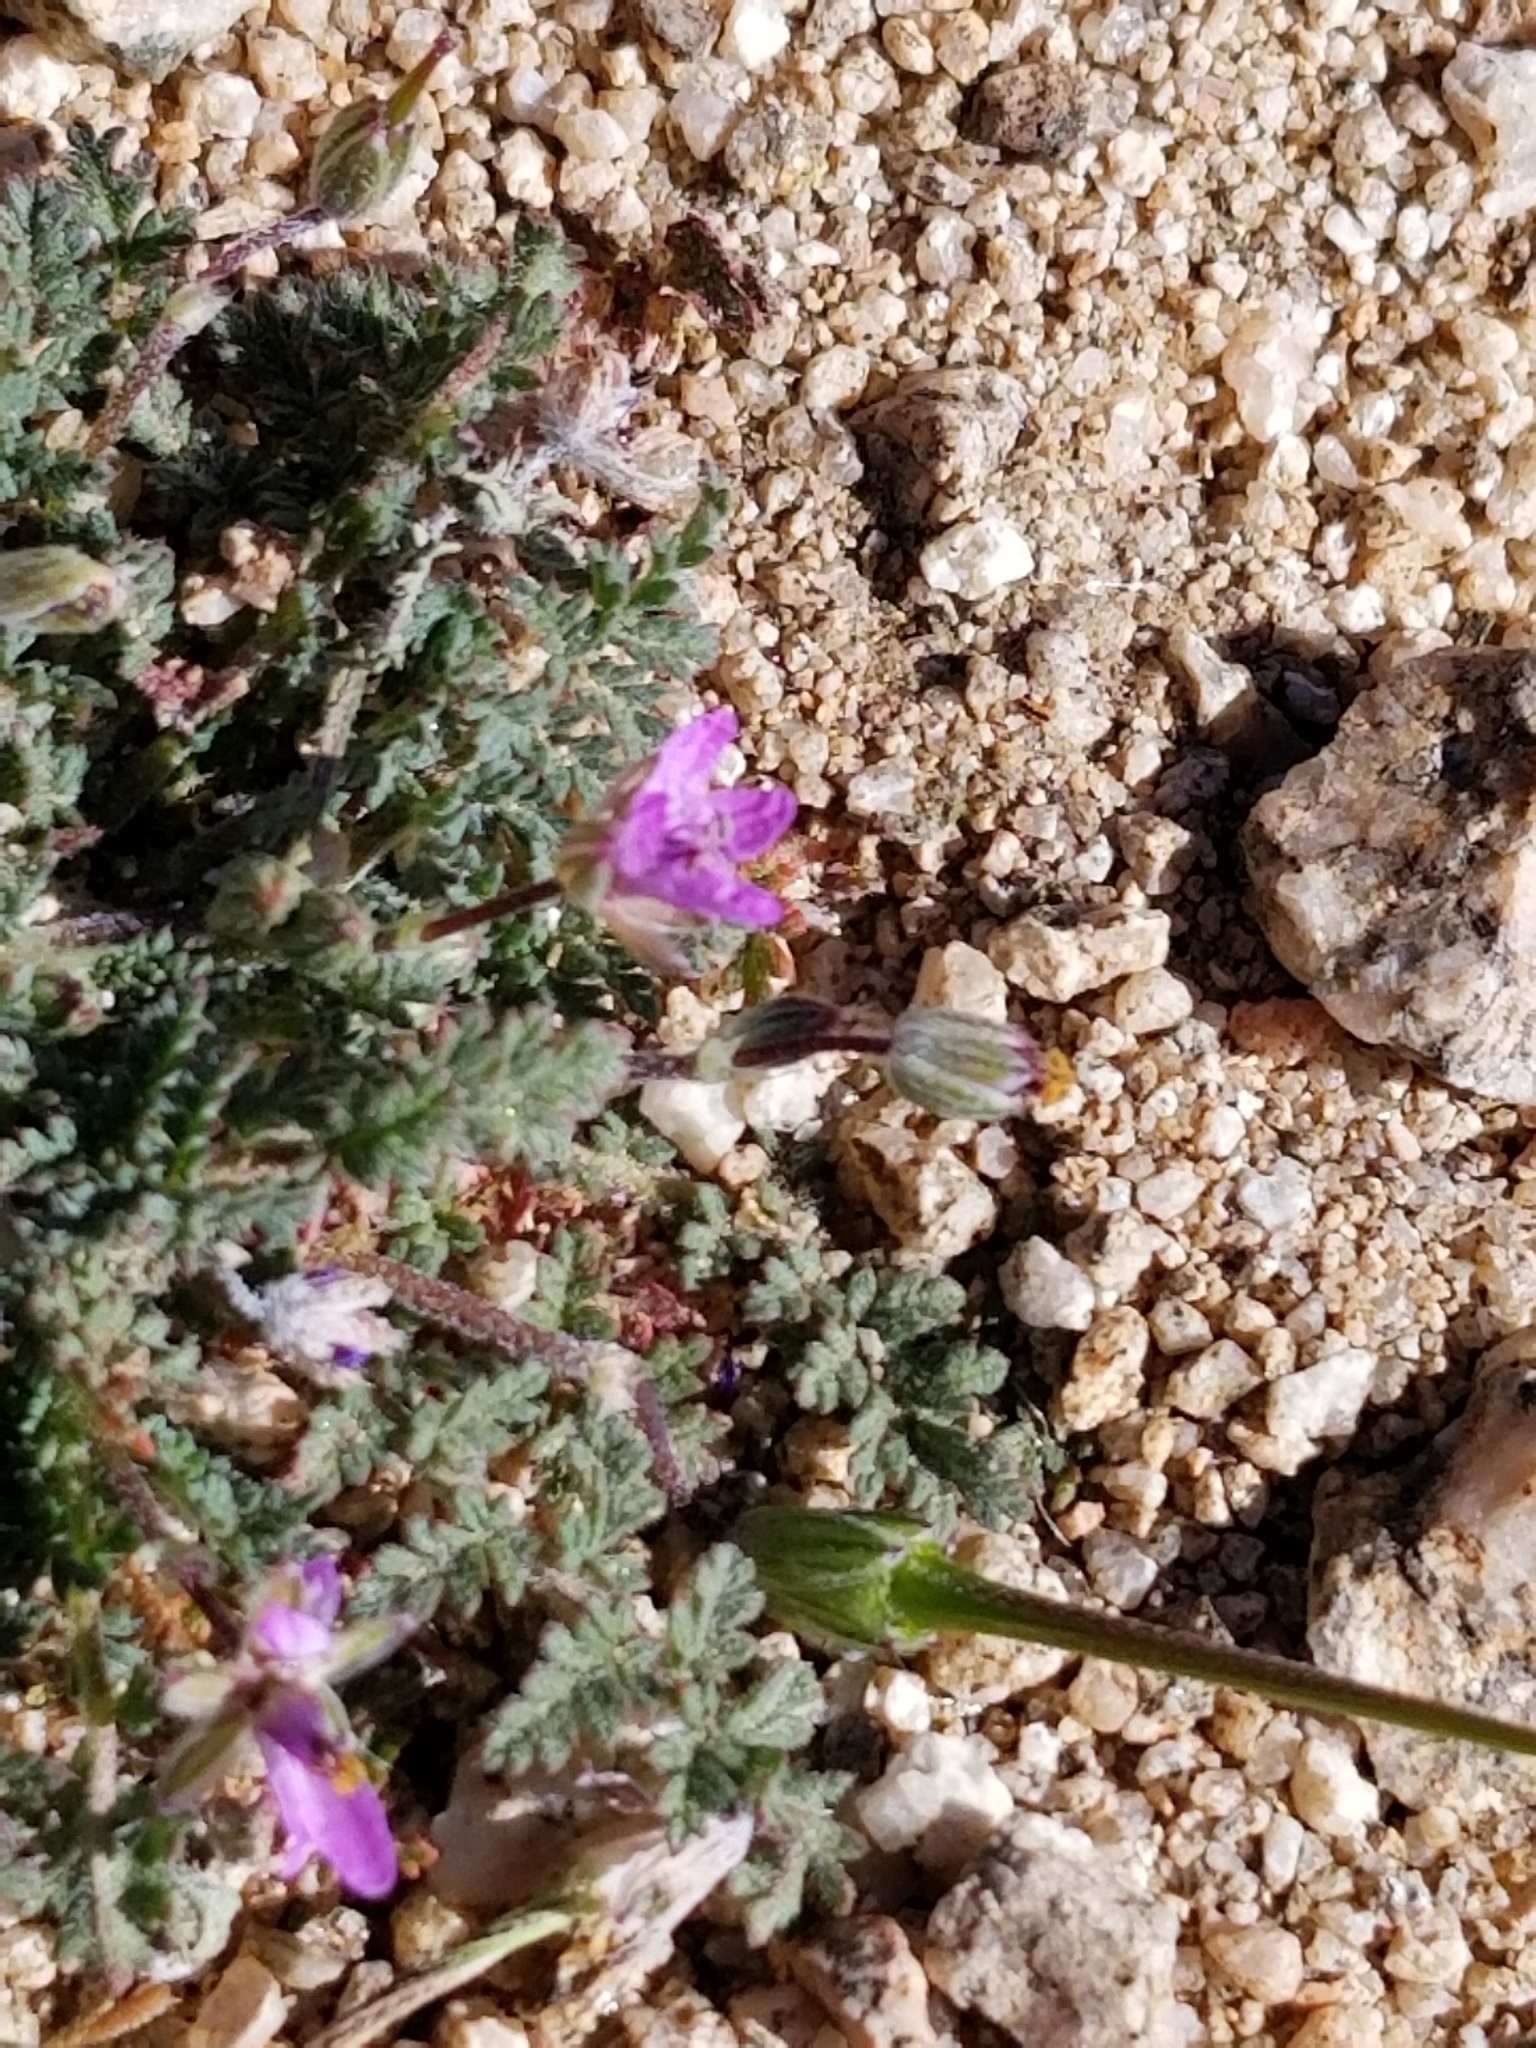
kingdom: Plantae
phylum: Tracheophyta
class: Magnoliopsida
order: Geraniales
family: Geraniaceae
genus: Erodium
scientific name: Erodium cicutarium
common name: Common stork's-bill
